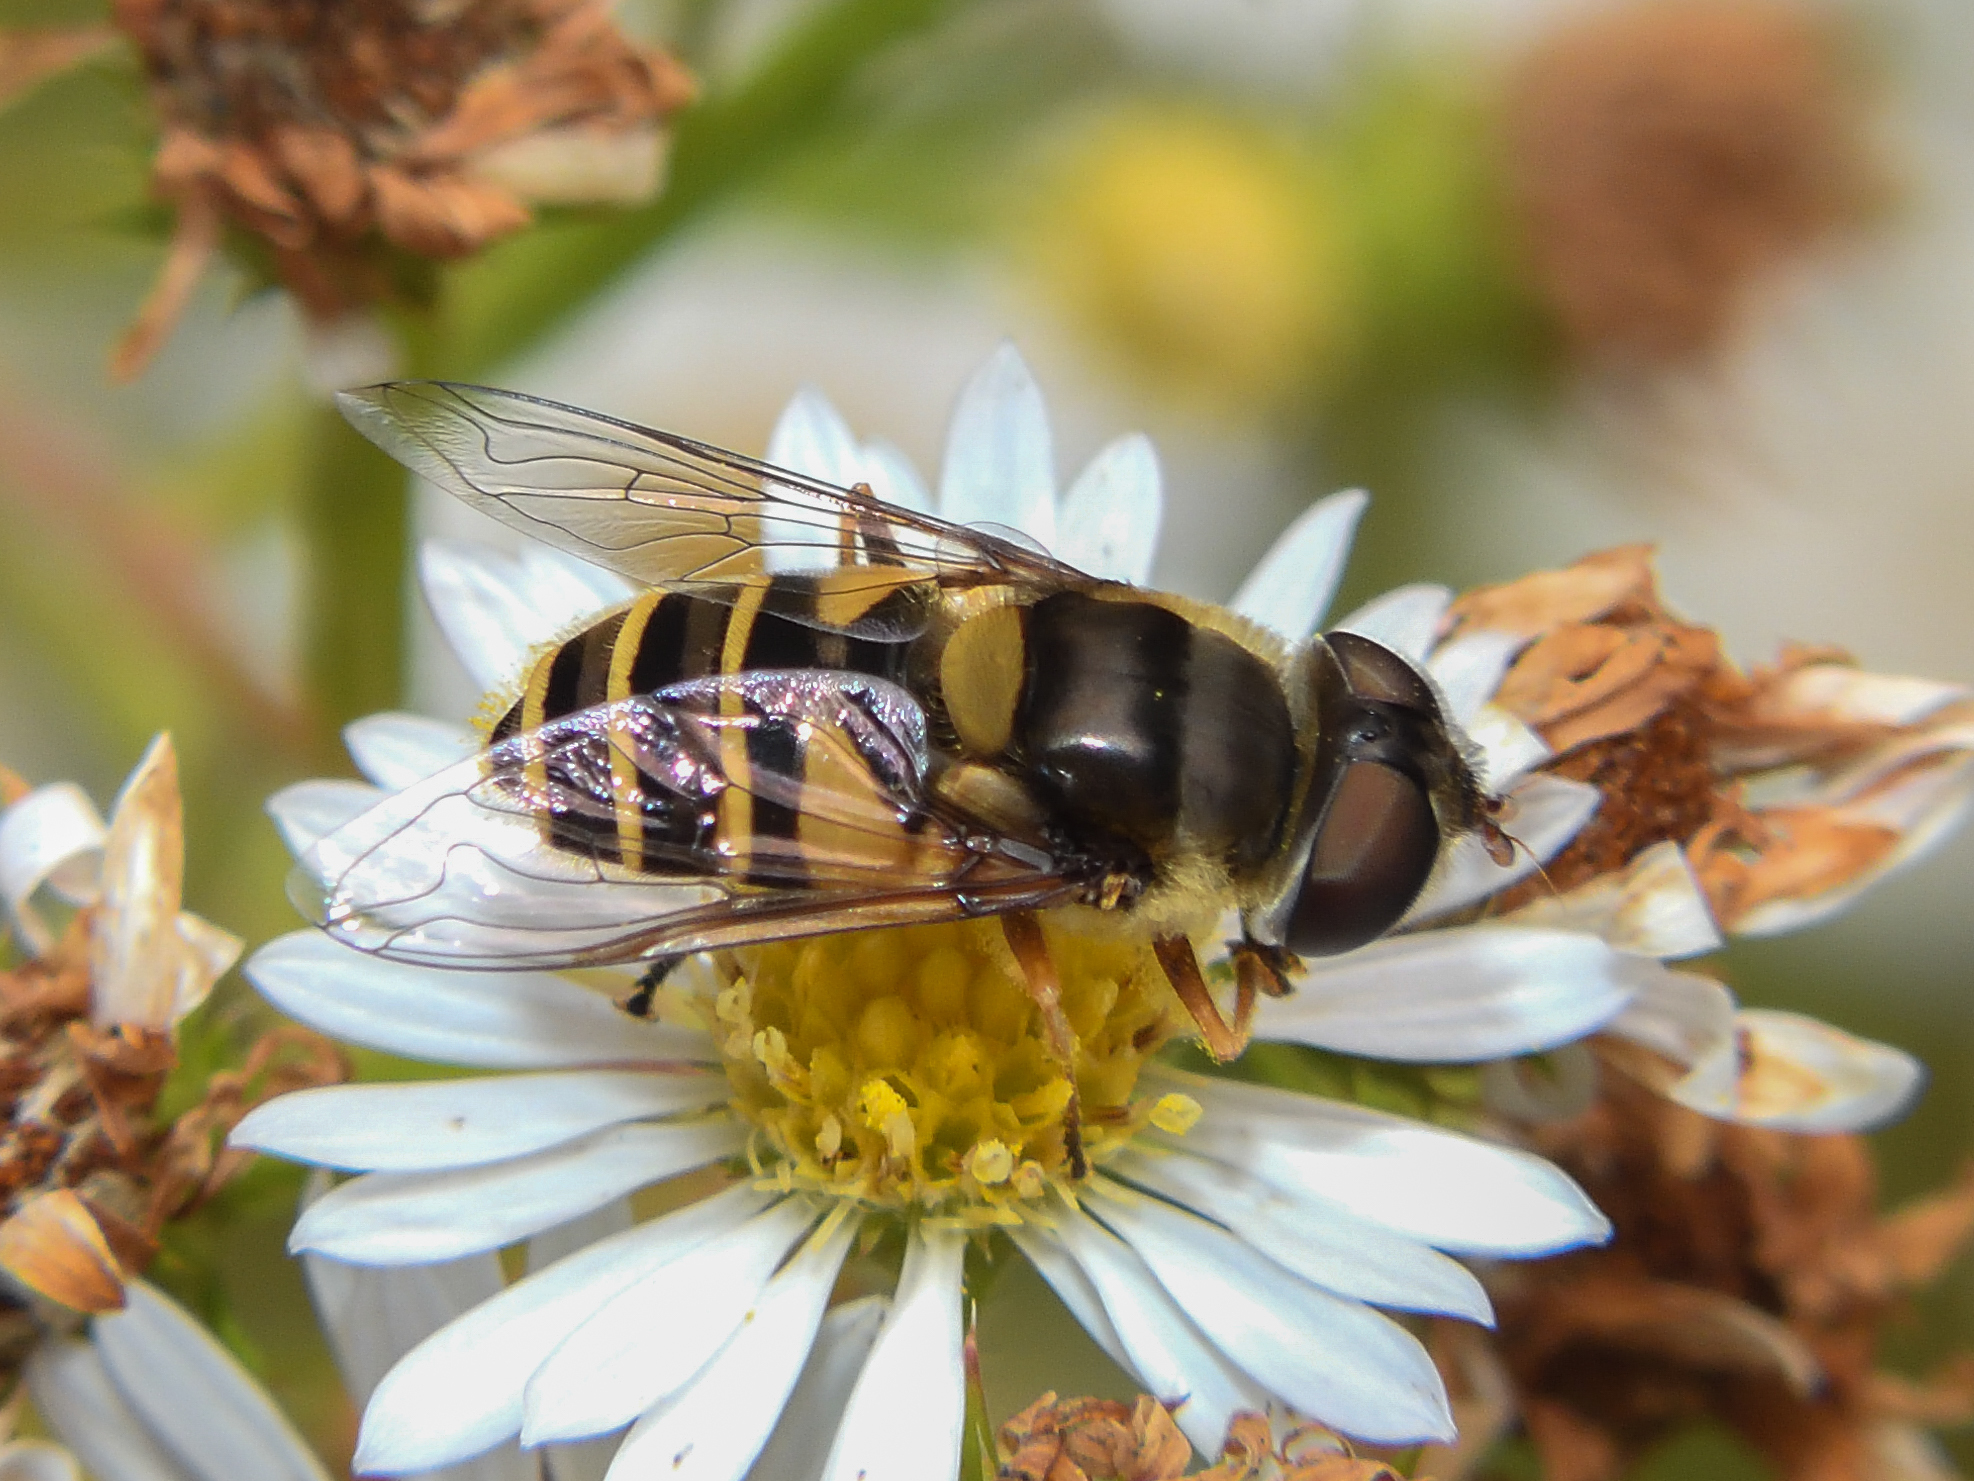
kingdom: Animalia
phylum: Arthropoda
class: Insecta
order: Diptera
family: Syrphidae
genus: Eristalis
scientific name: Eristalis transversa
